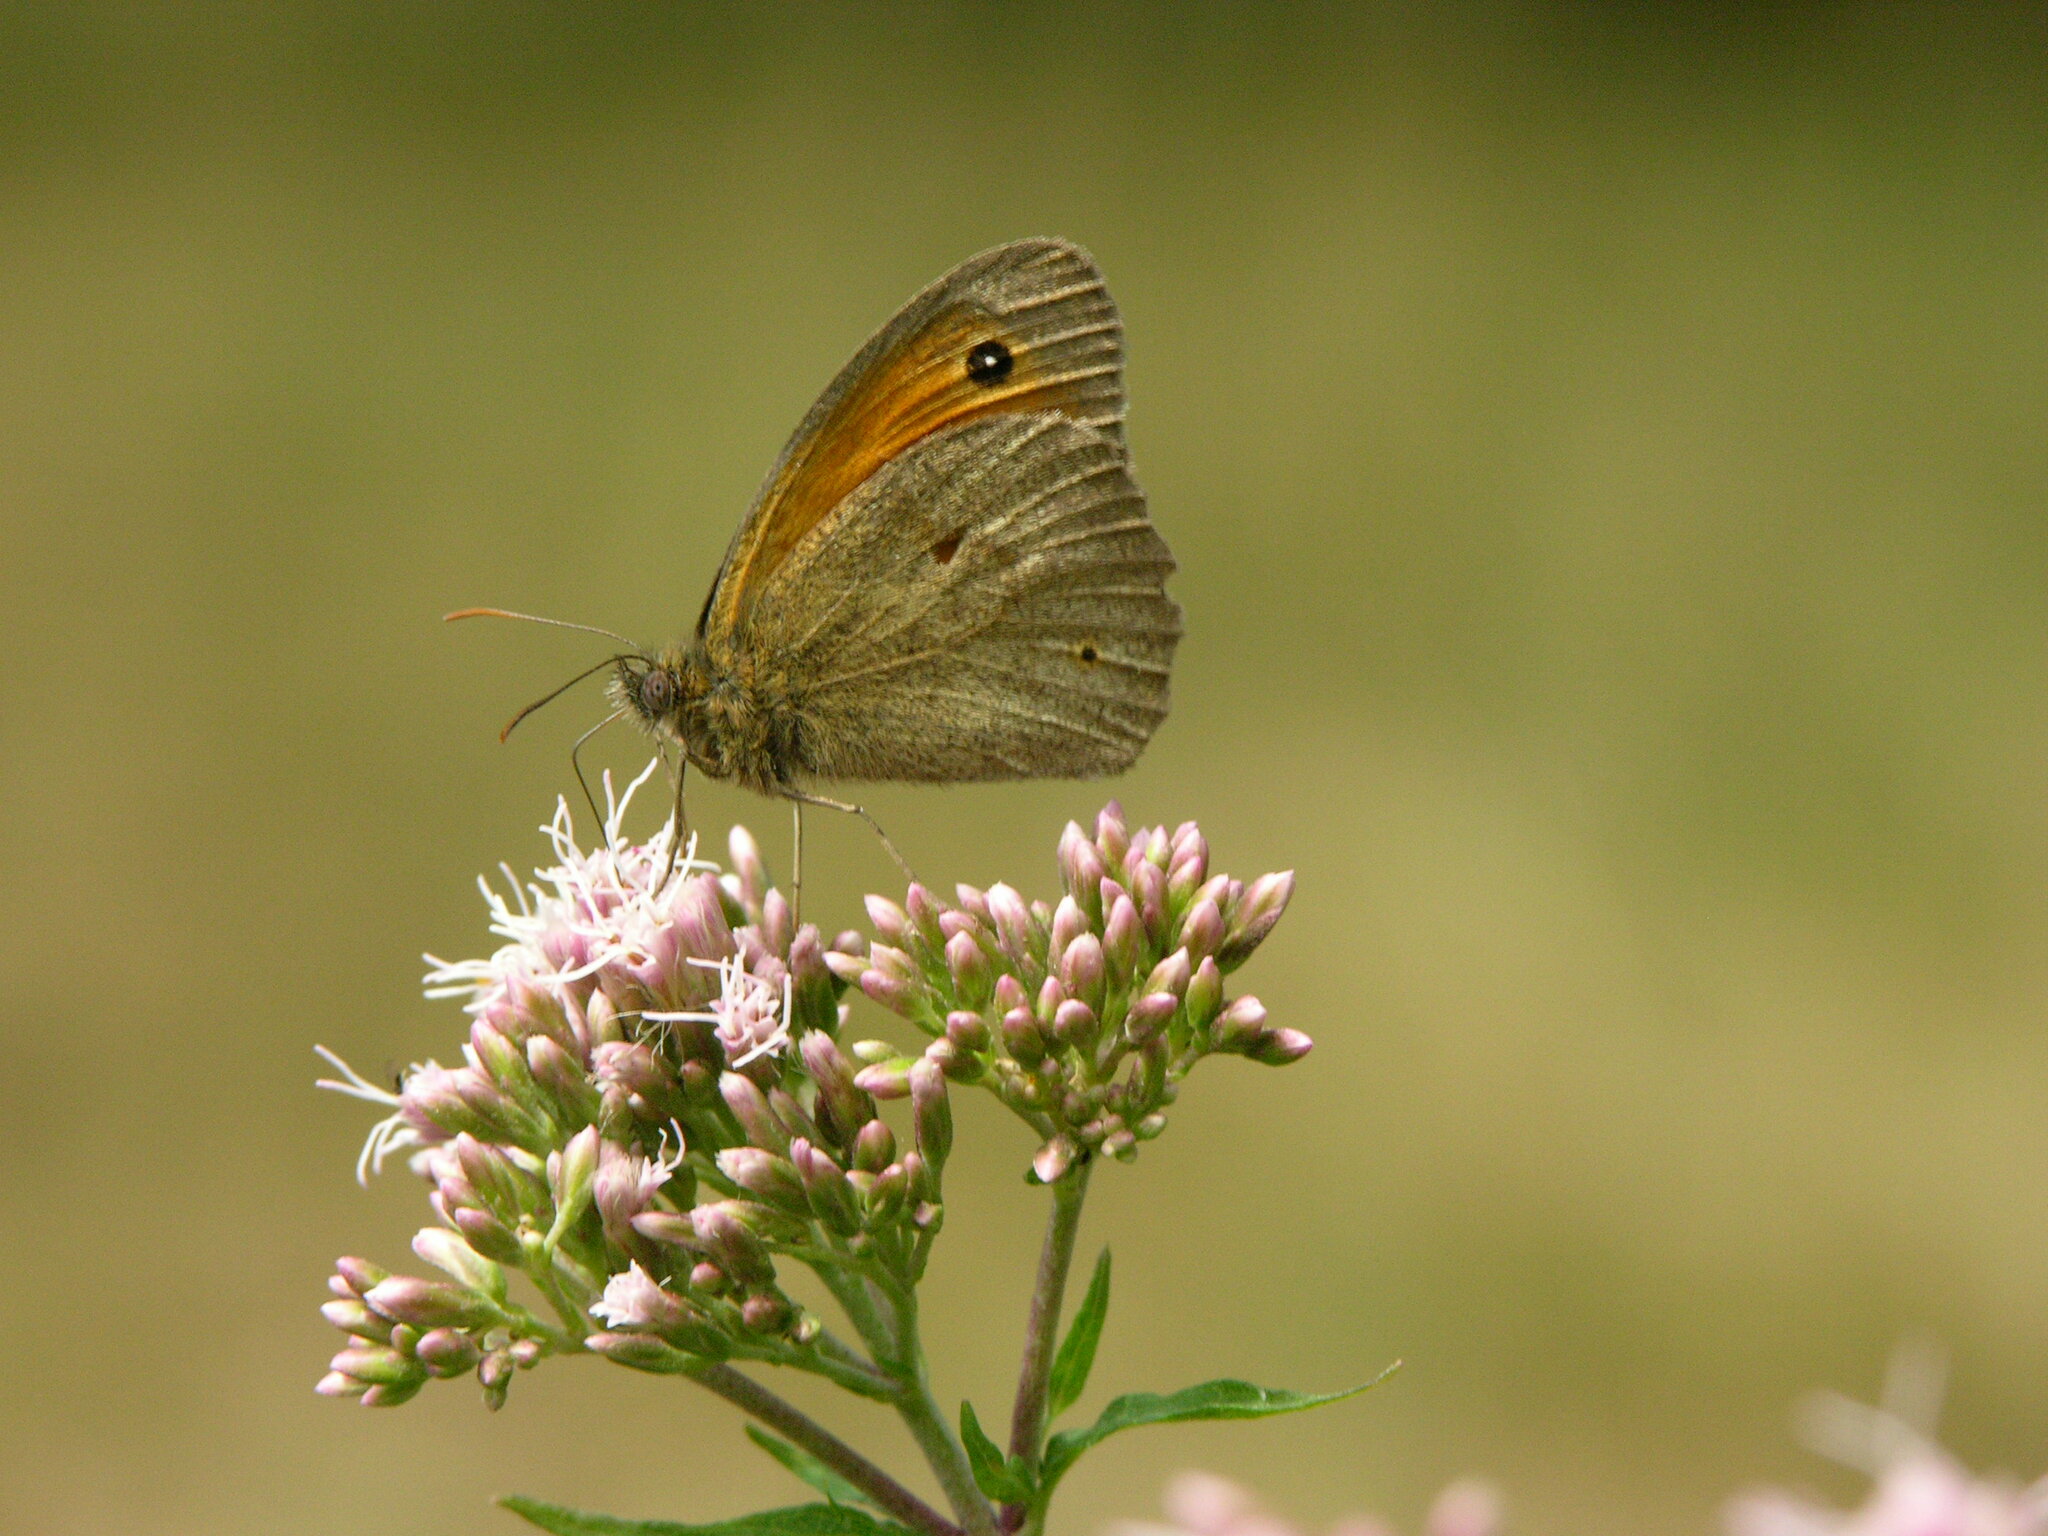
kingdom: Animalia
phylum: Arthropoda
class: Insecta
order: Lepidoptera
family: Nymphalidae
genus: Maniola
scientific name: Maniola jurtina
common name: Meadow brown
